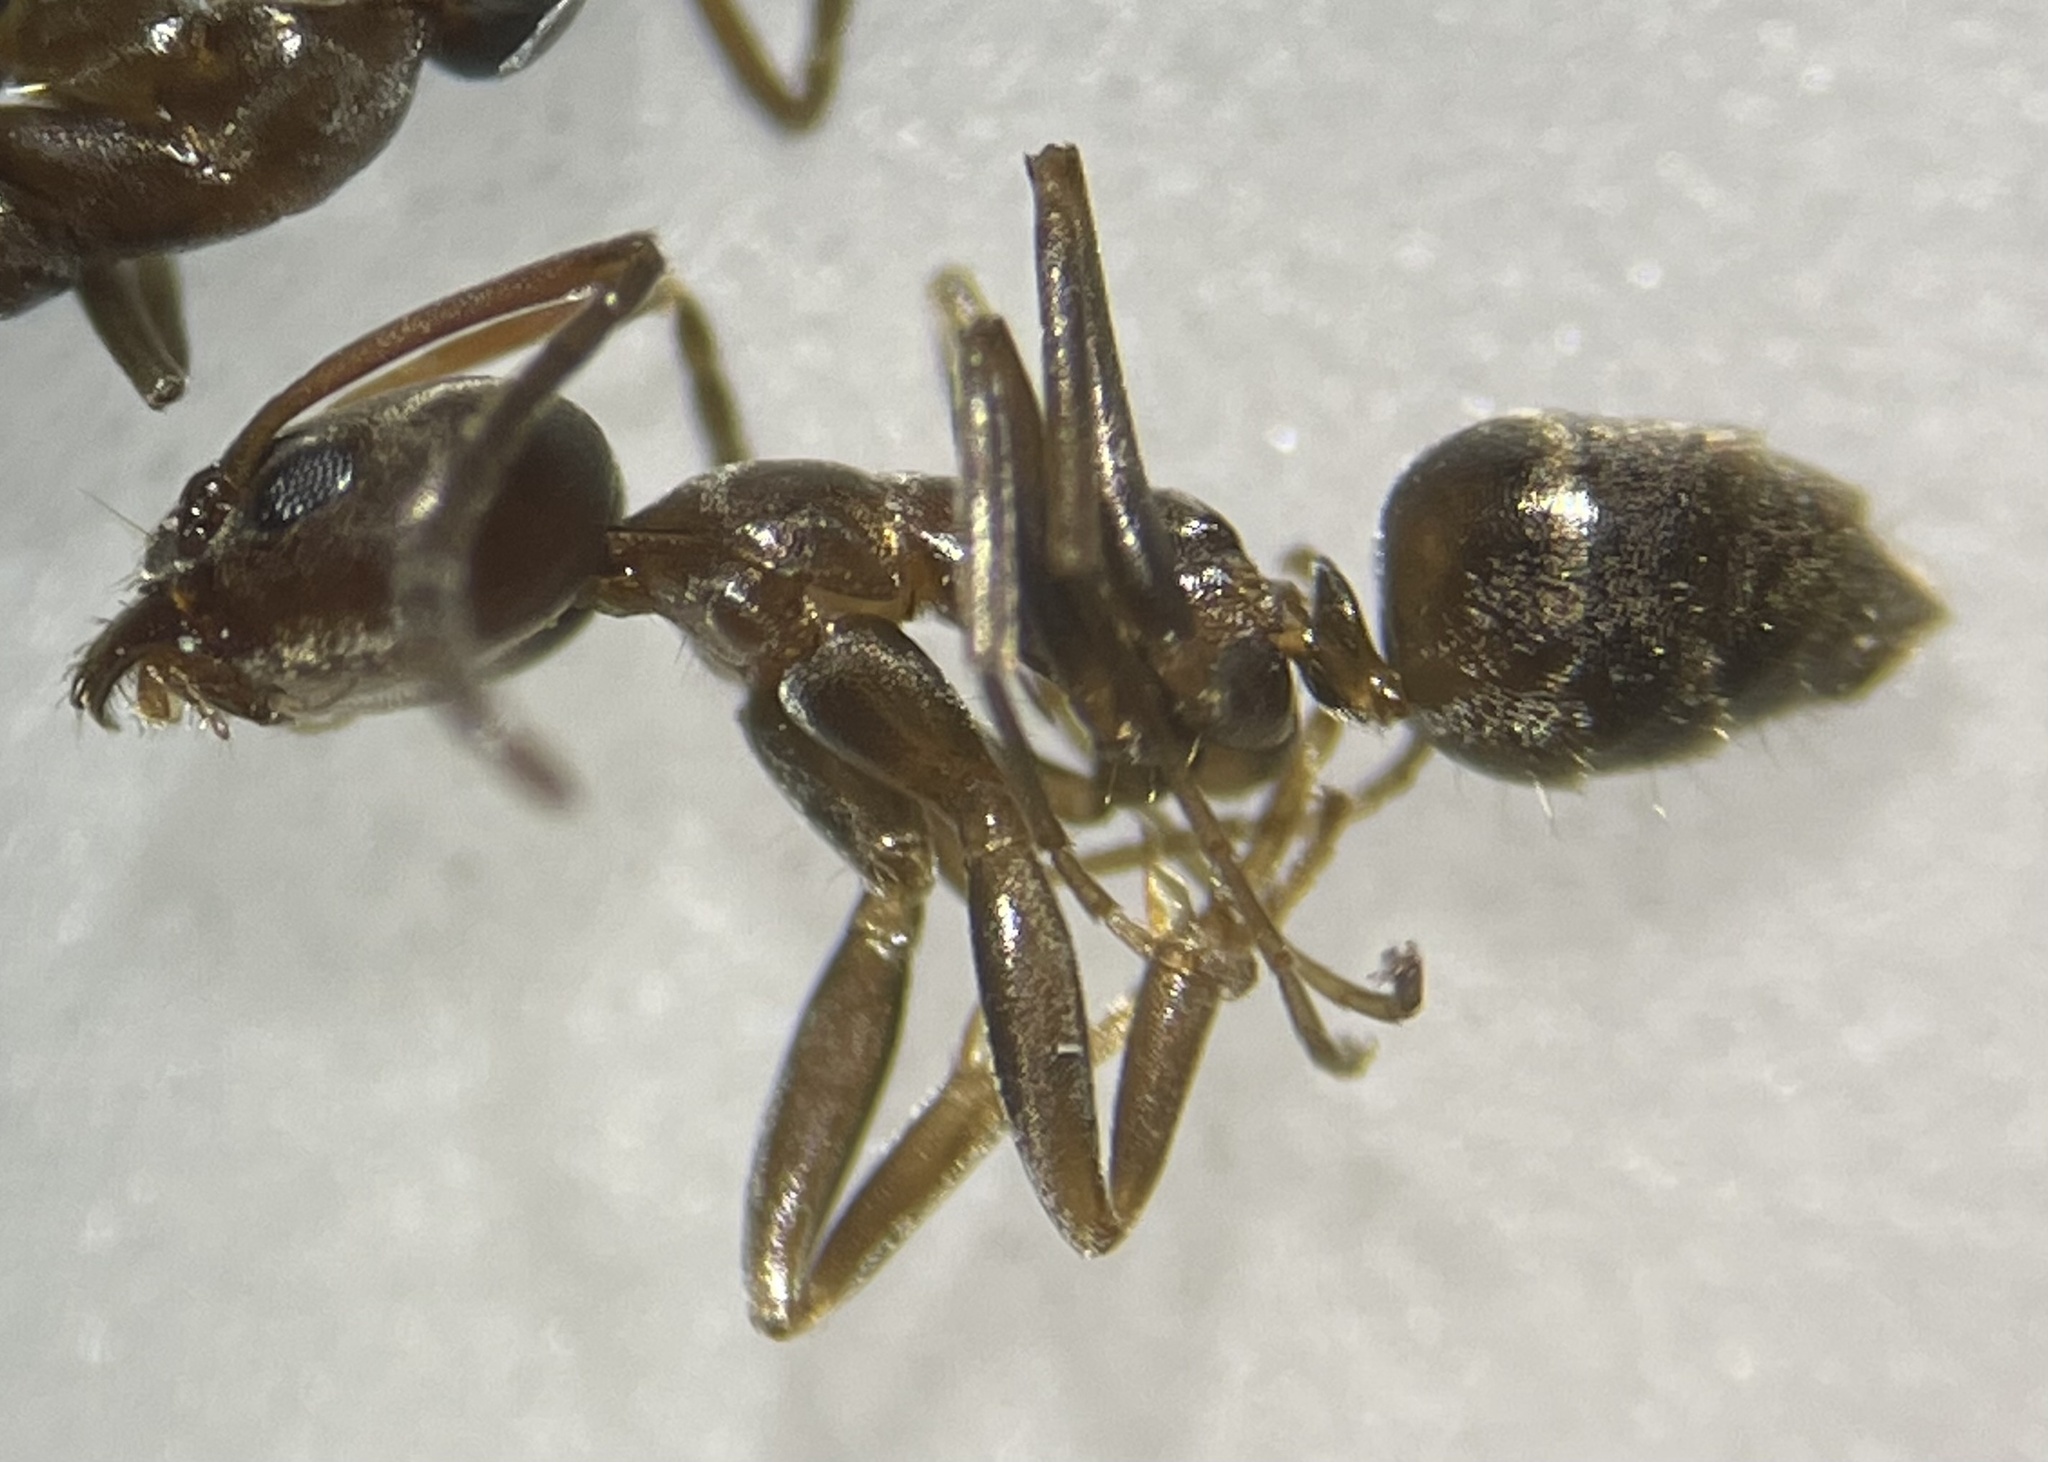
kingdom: Animalia
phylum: Arthropoda
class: Insecta
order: Hymenoptera
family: Formicidae
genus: Linepithema
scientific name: Linepithema humile
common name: Argentine ant
